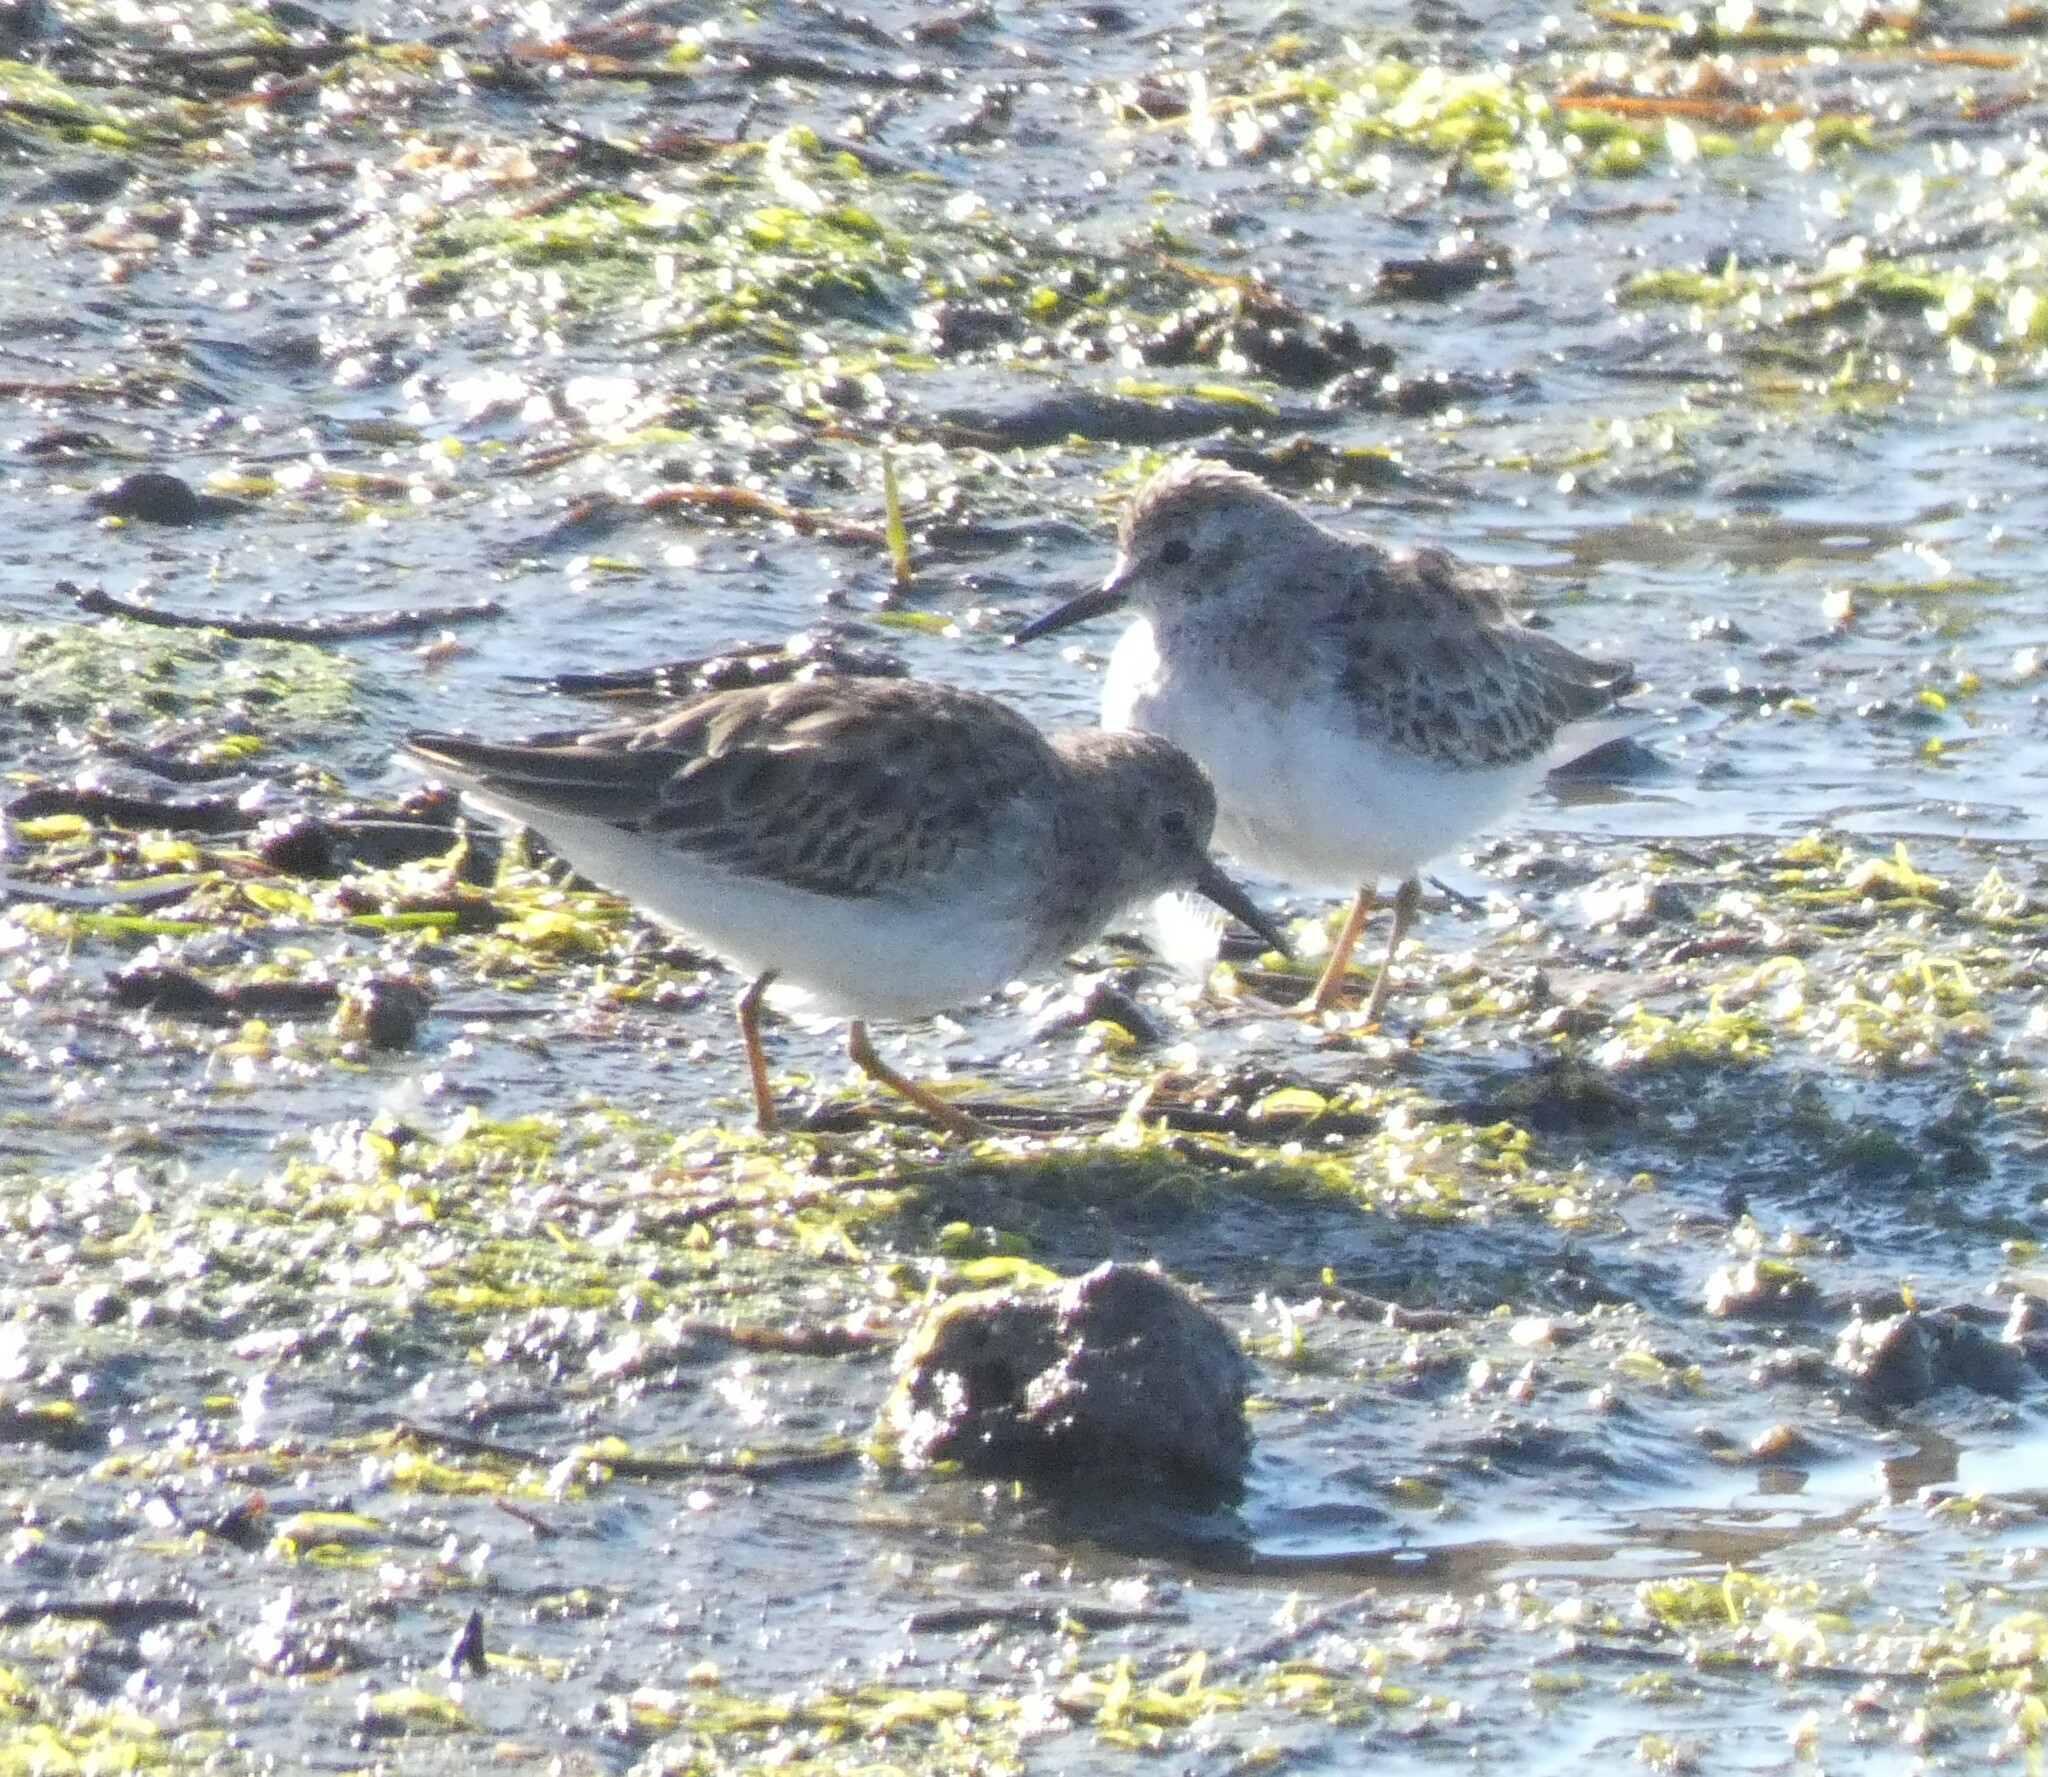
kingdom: Animalia
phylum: Chordata
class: Aves
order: Charadriiformes
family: Scolopacidae
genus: Calidris
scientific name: Calidris minutilla
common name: Least sandpiper
